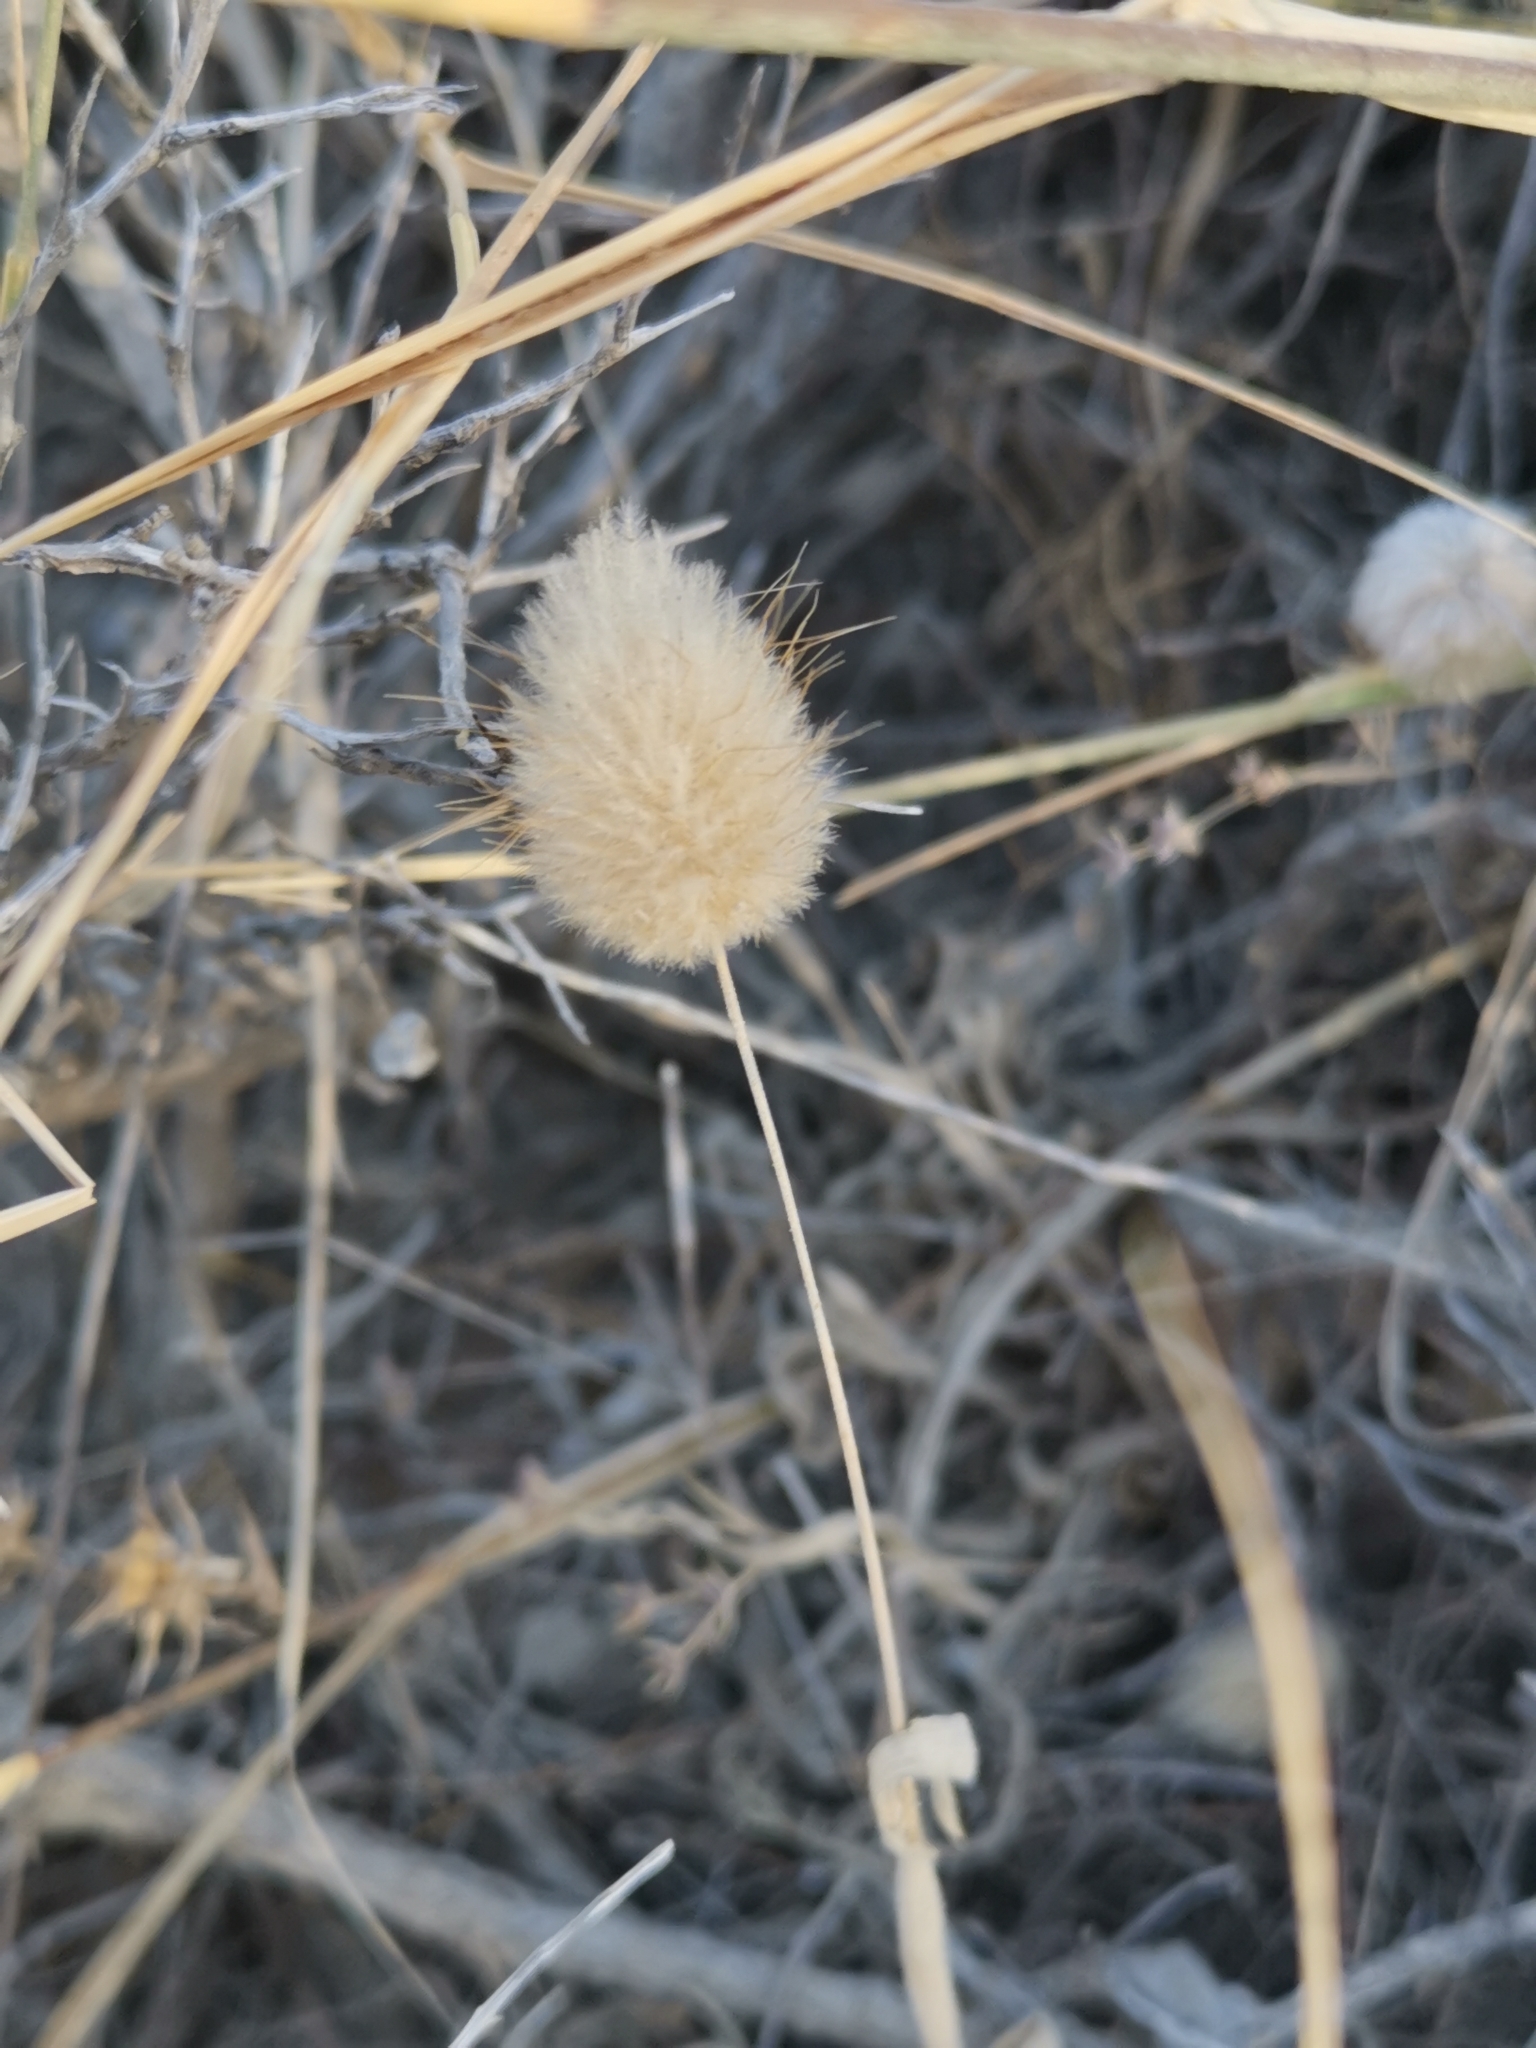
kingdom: Plantae
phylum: Tracheophyta
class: Liliopsida
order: Poales
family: Poaceae
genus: Lagurus
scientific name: Lagurus ovatus
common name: Hare's-tail
